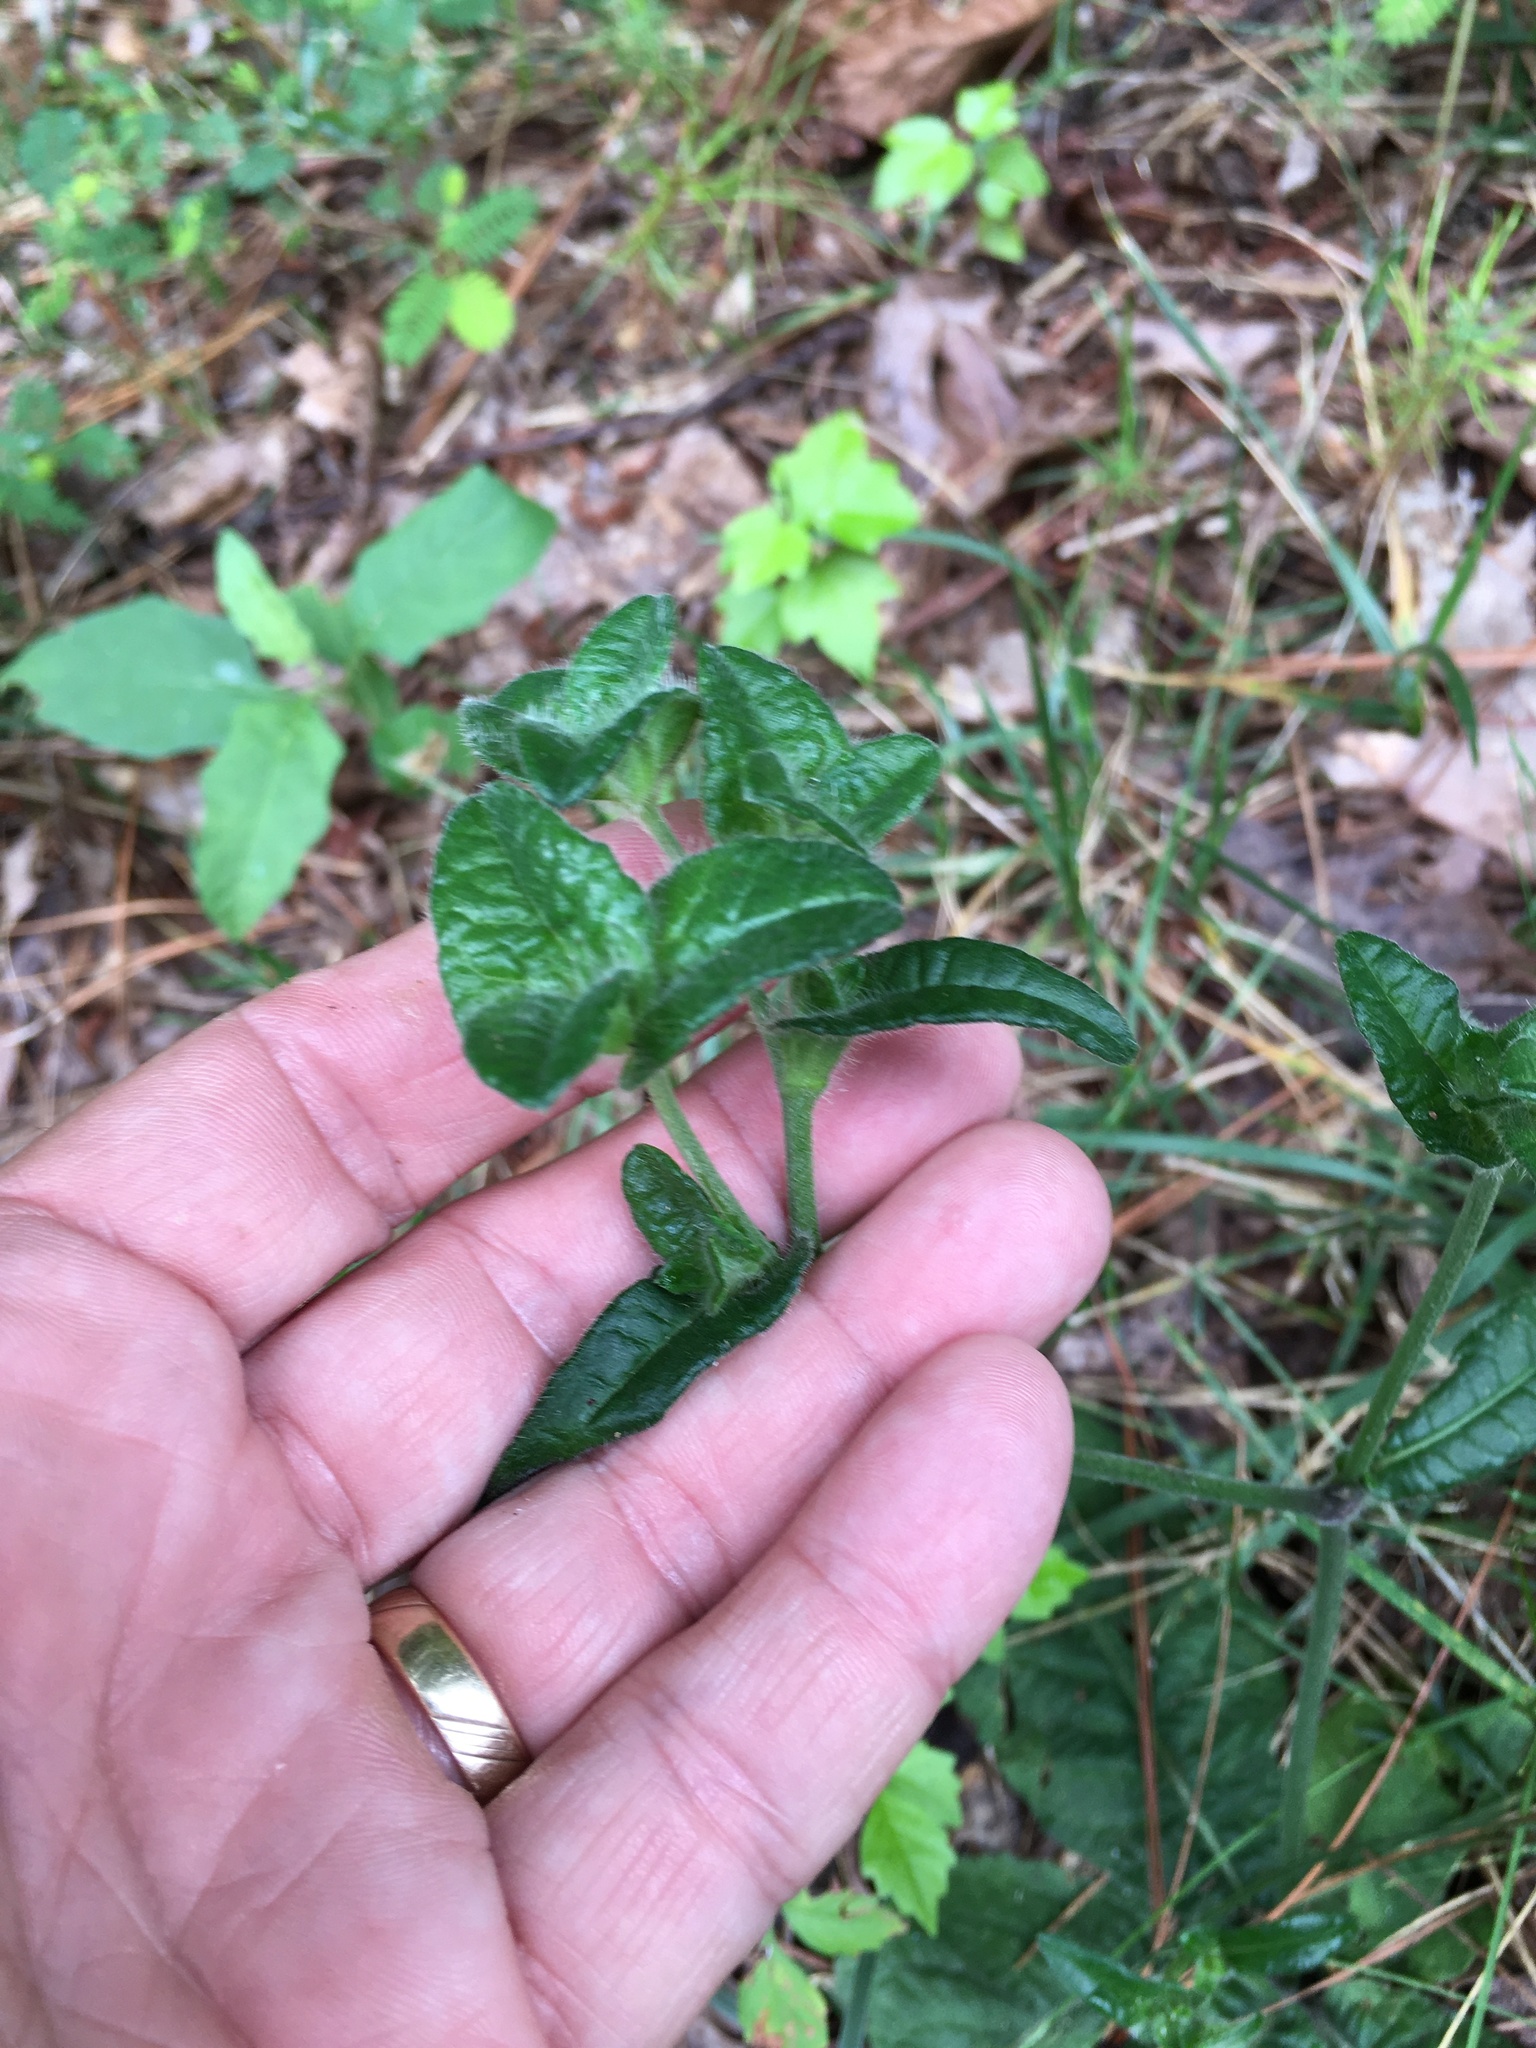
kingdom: Plantae
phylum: Tracheophyta
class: Magnoliopsida
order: Asterales
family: Asteraceae
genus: Elephantopus
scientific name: Elephantopus tomentosus
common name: Tobacco-weed
